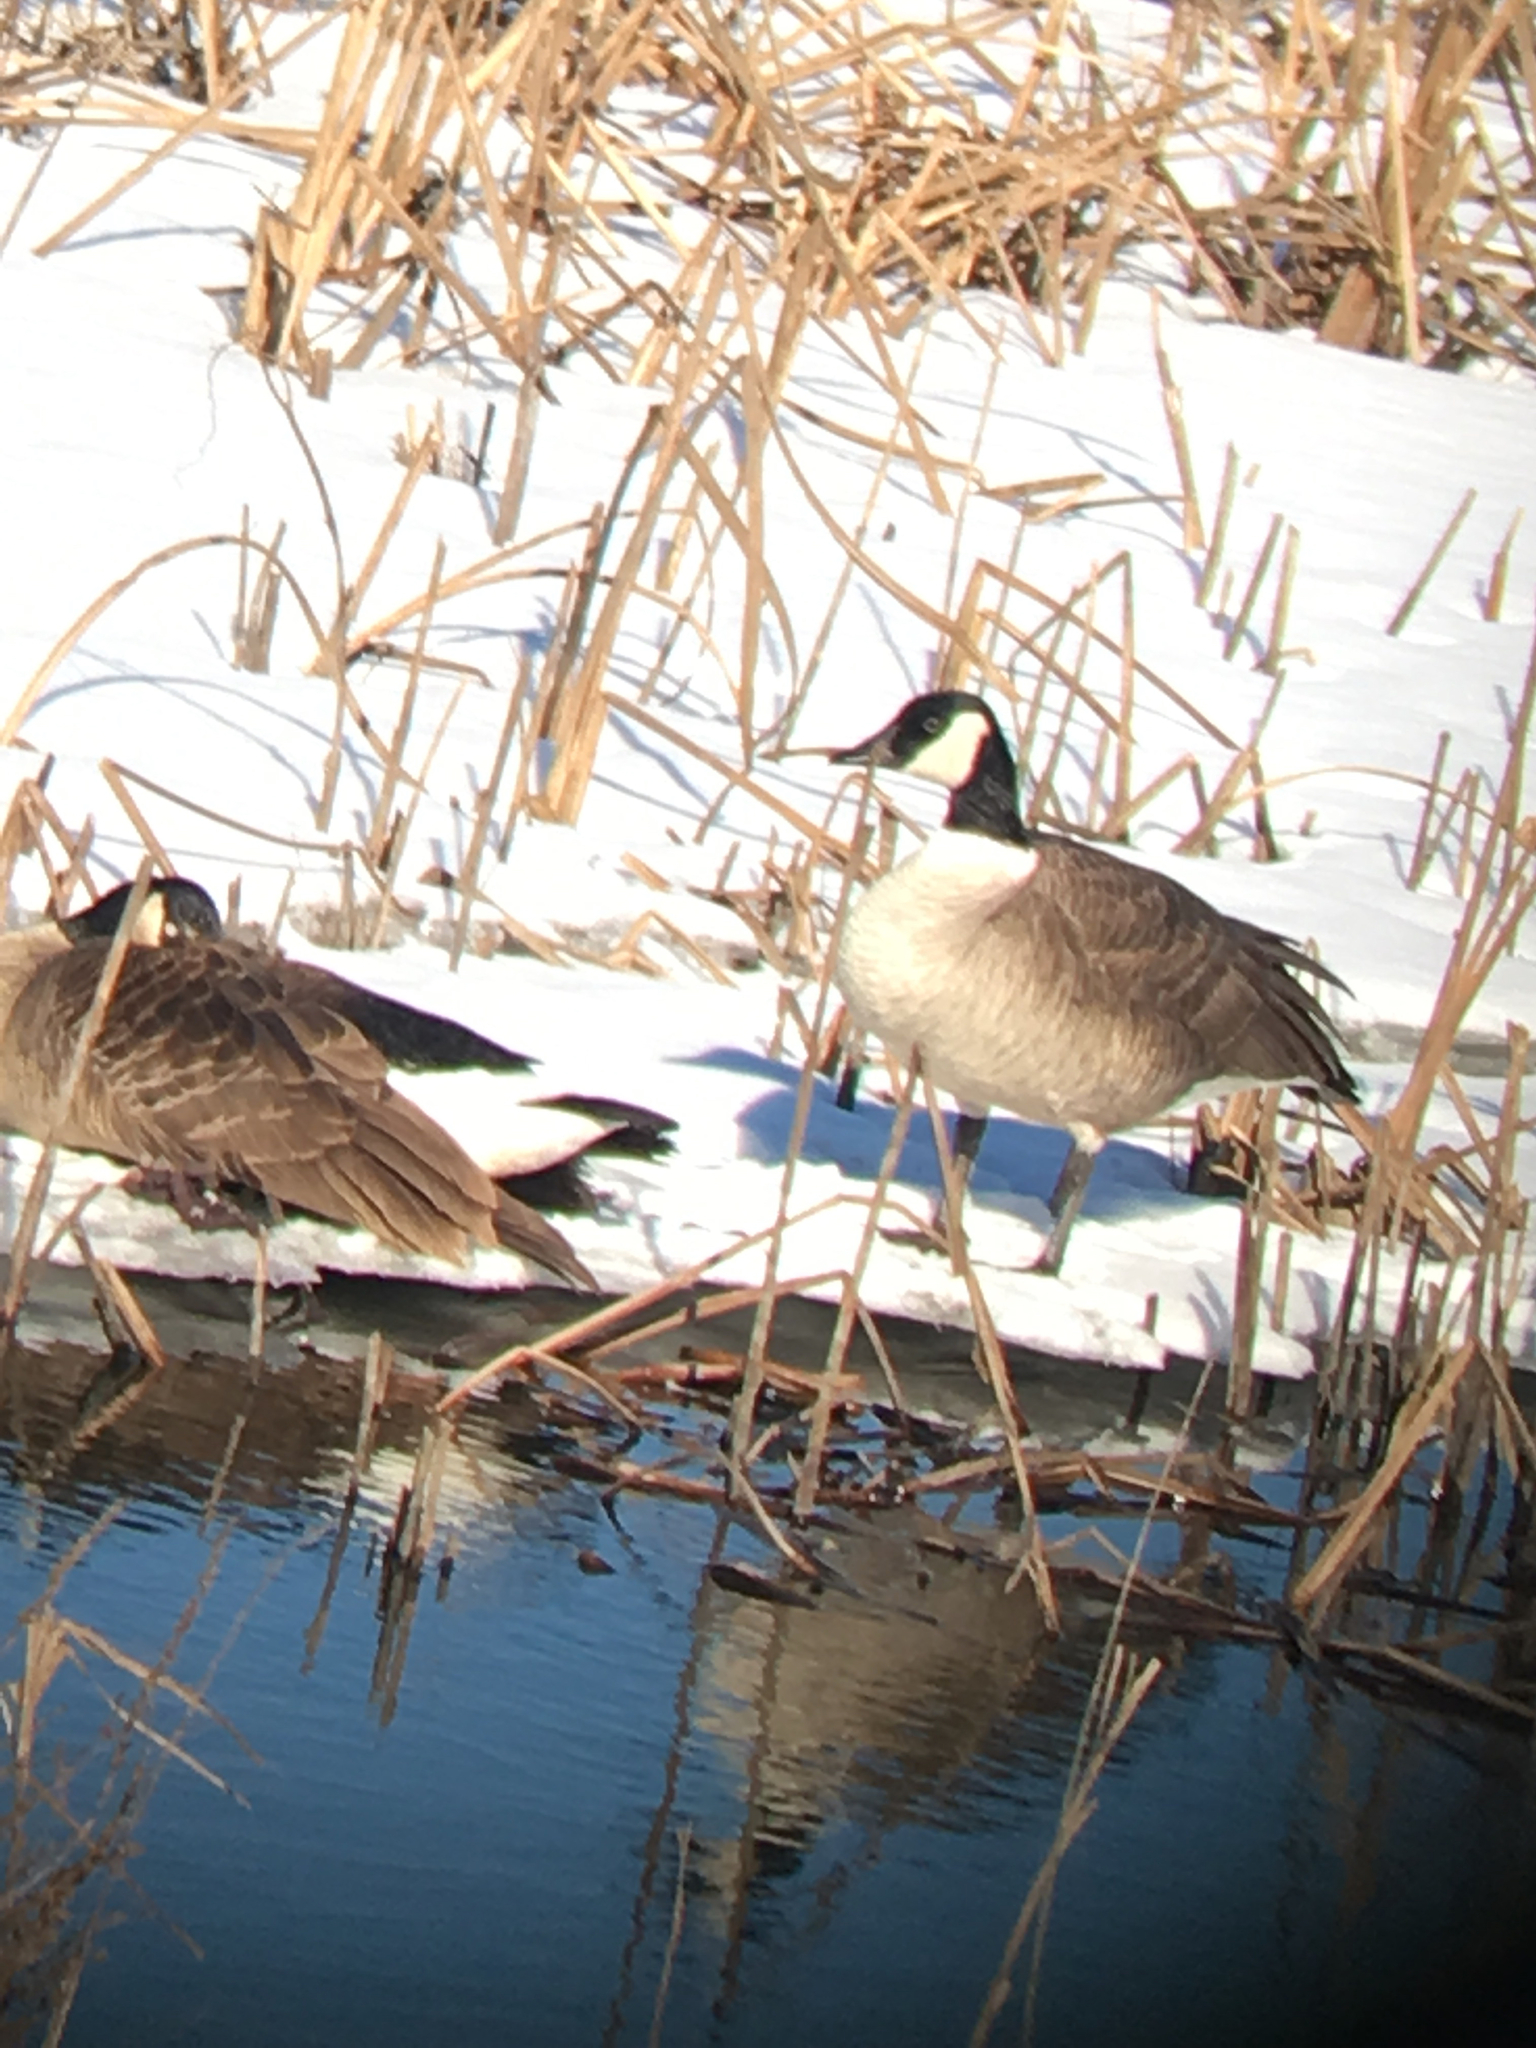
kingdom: Animalia
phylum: Chordata
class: Aves
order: Anseriformes
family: Anatidae
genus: Branta
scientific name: Branta canadensis
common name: Canada goose
